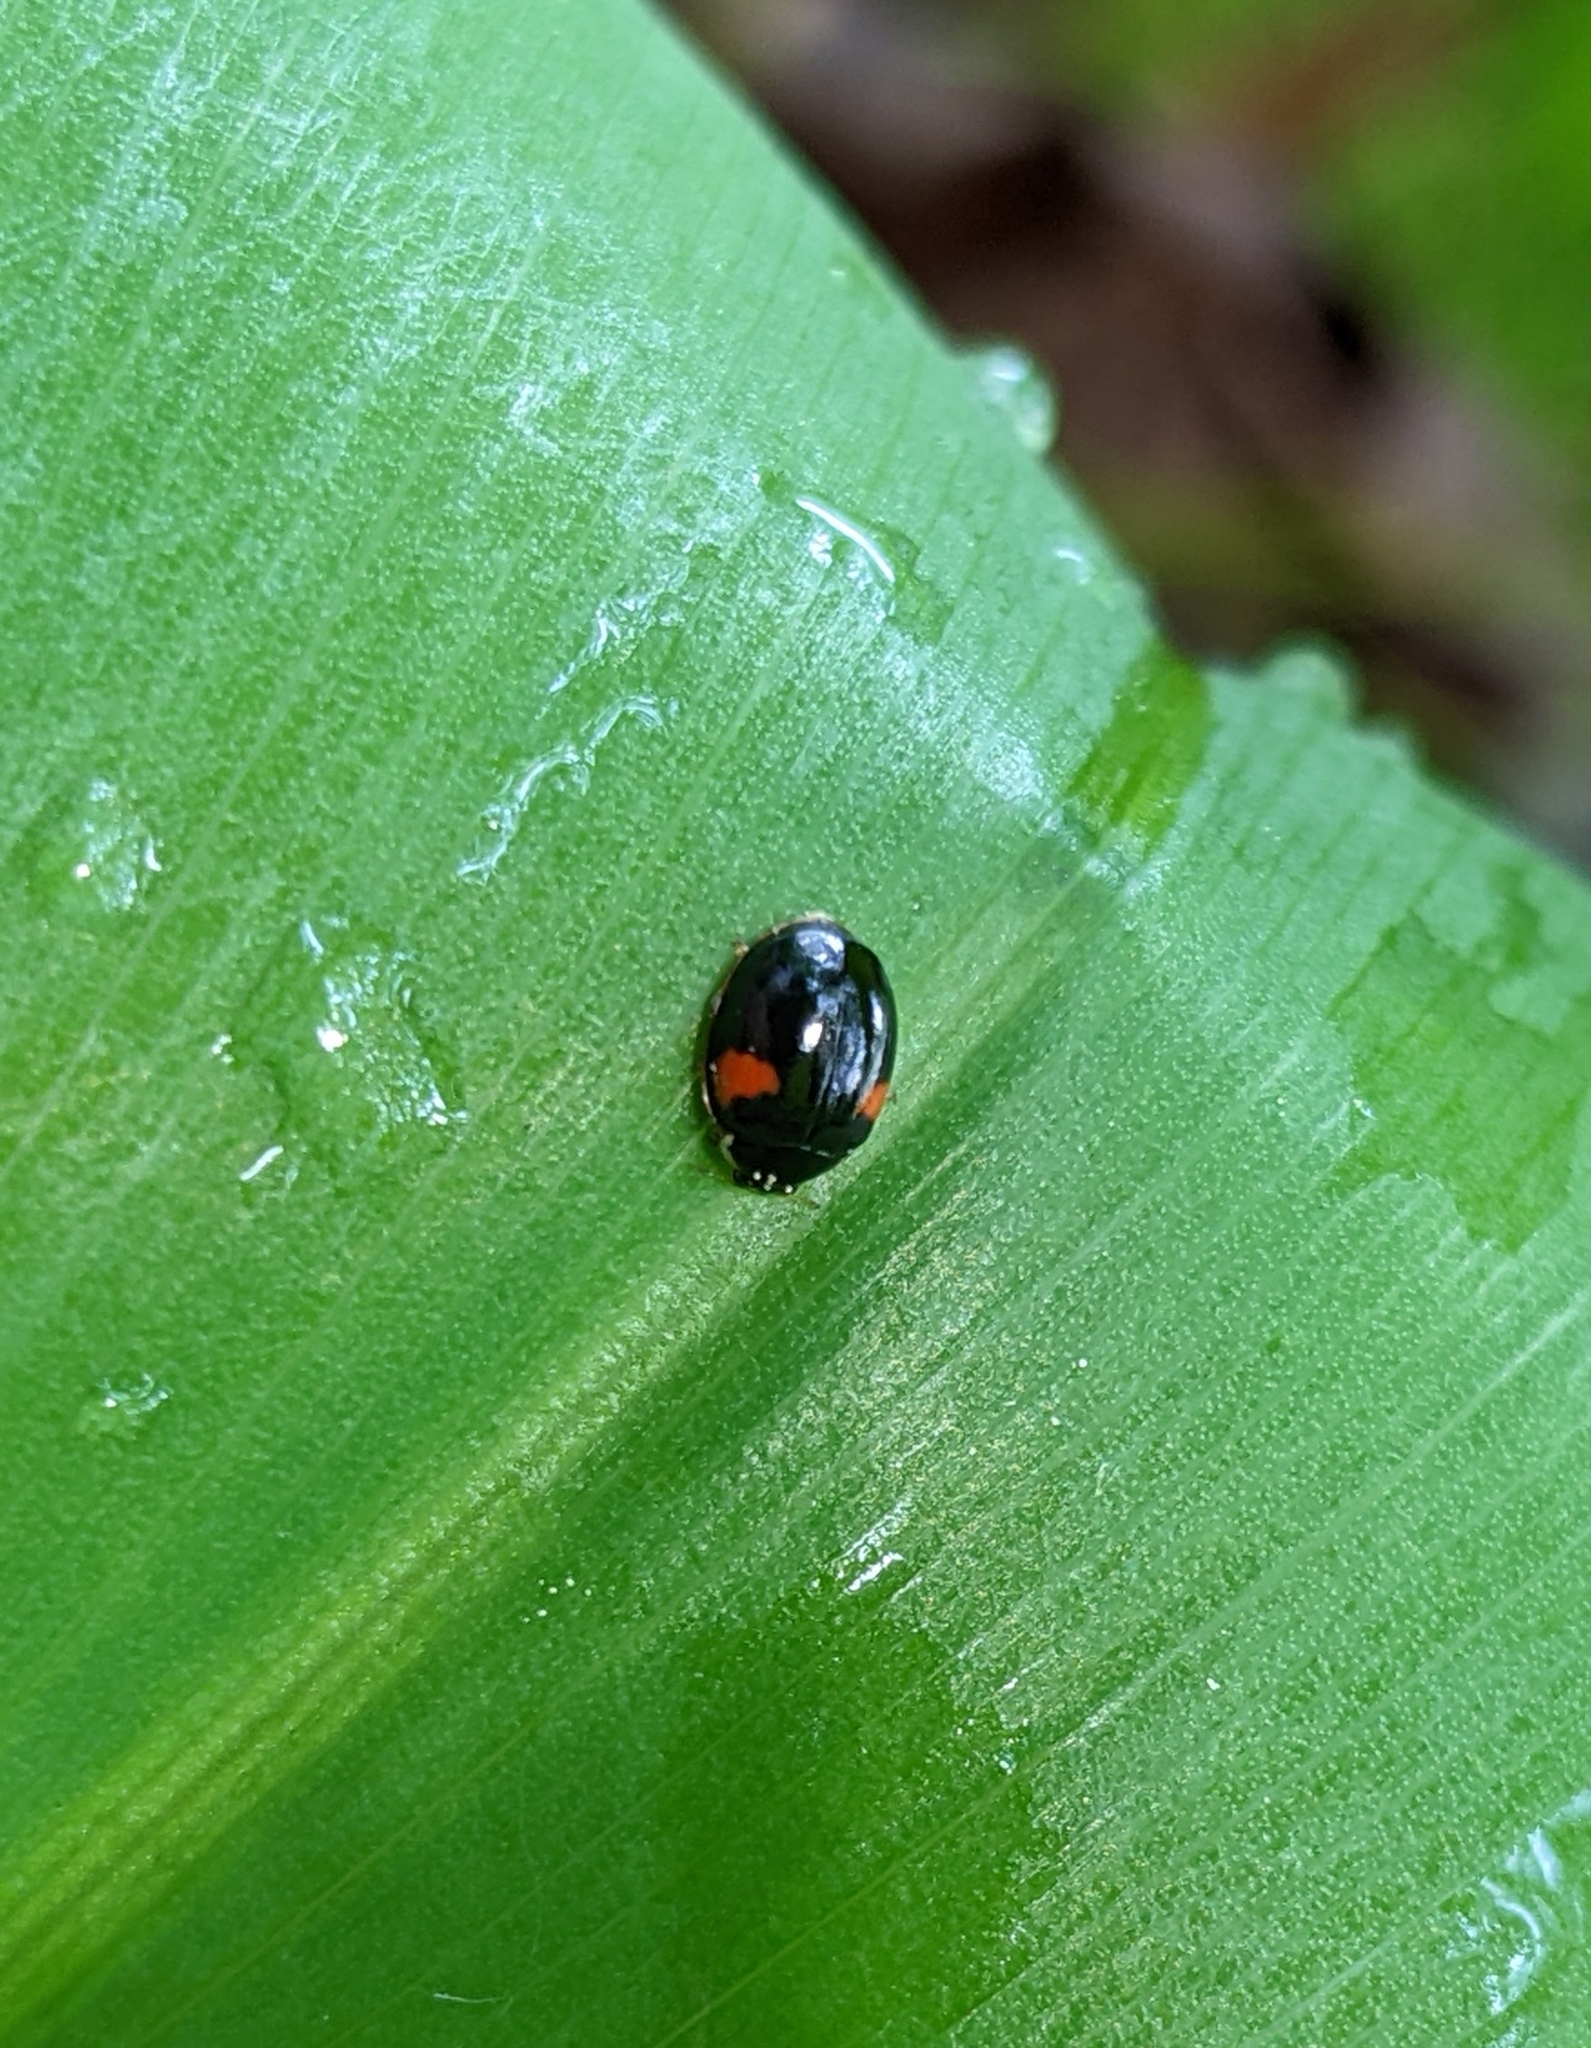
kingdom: Animalia
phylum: Arthropoda
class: Insecta
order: Coleoptera
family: Coccinellidae
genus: Adalia
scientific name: Adalia decempunctata
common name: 10-spot ladybird
